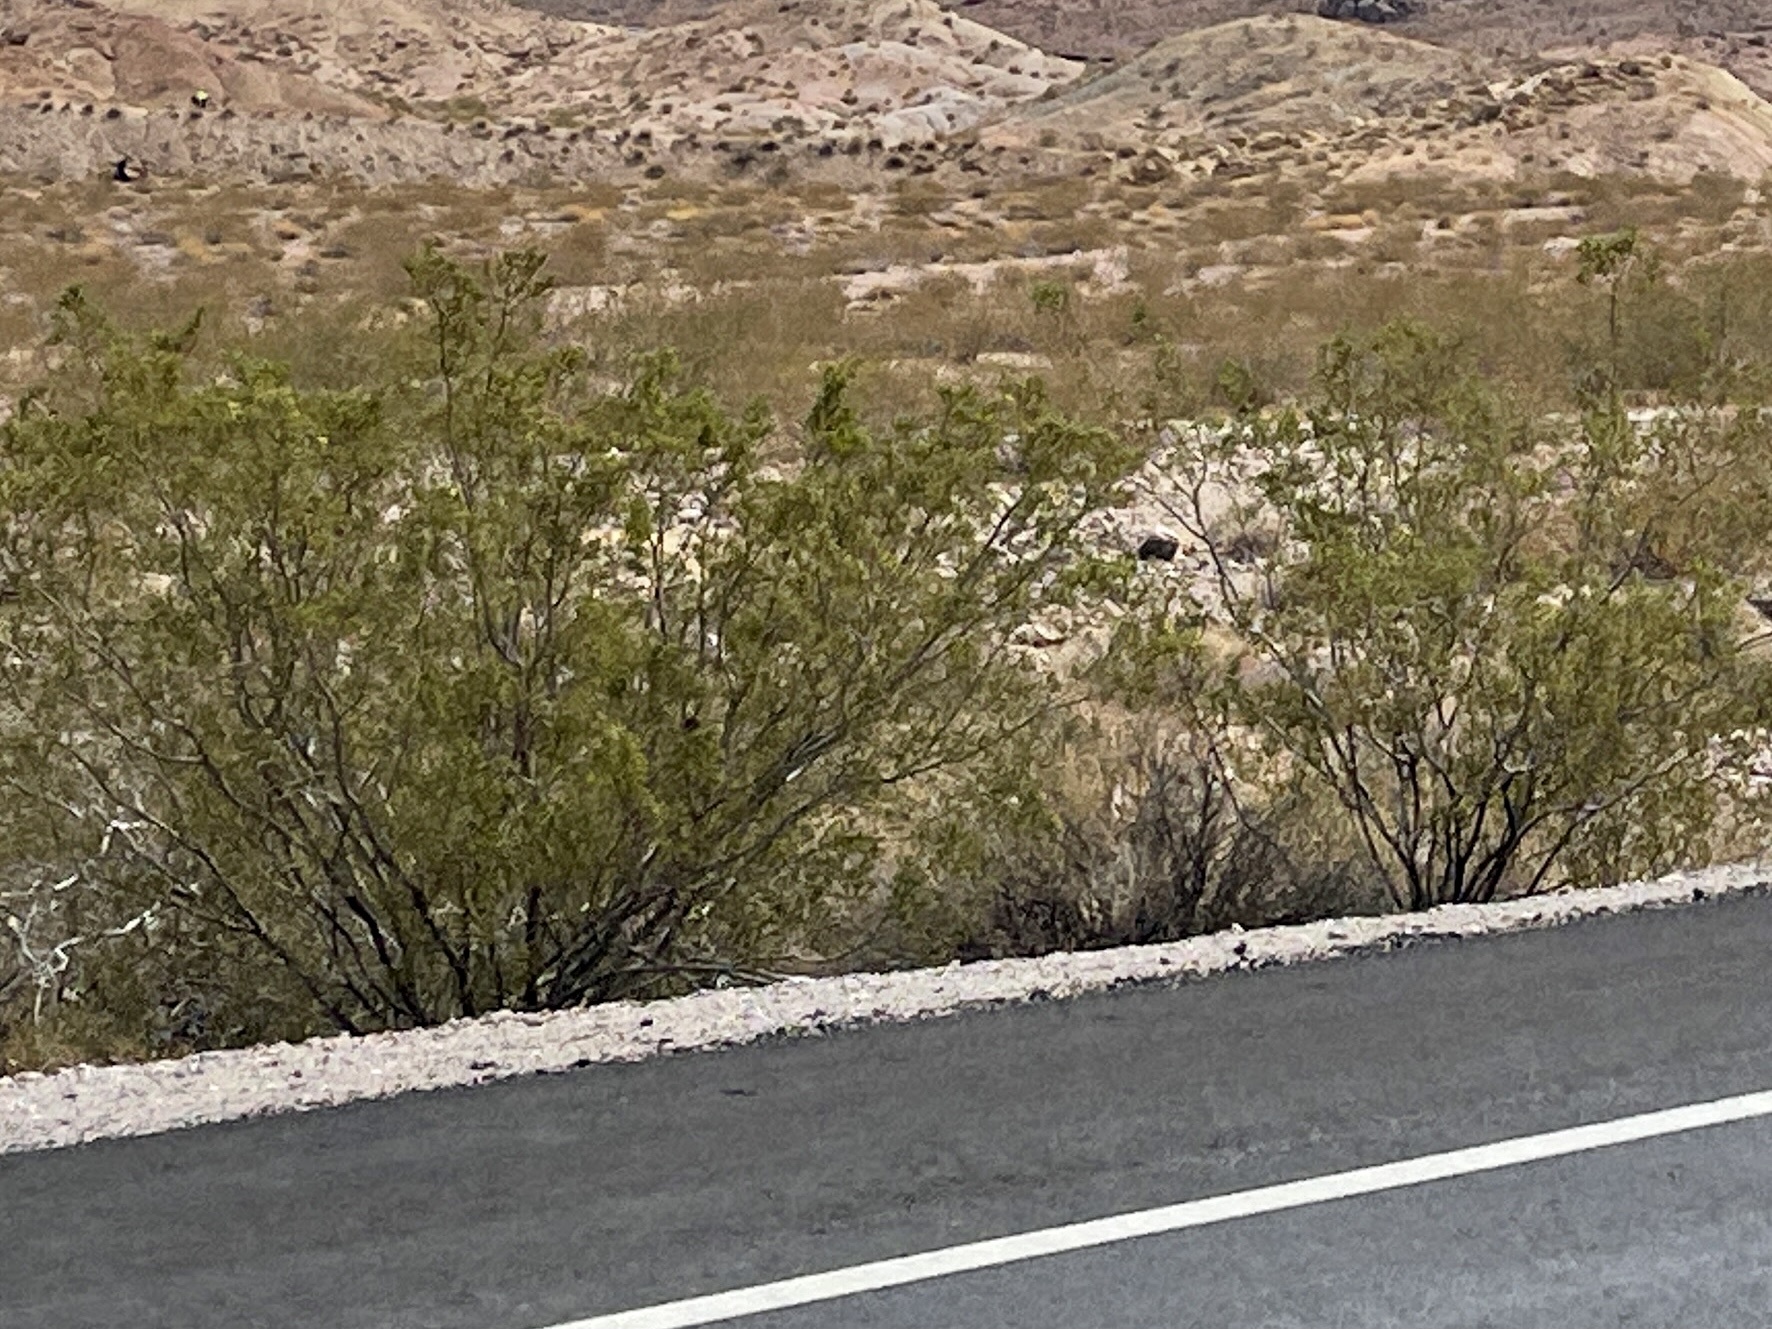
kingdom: Plantae
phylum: Tracheophyta
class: Magnoliopsida
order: Zygophyllales
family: Zygophyllaceae
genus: Larrea
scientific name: Larrea tridentata
